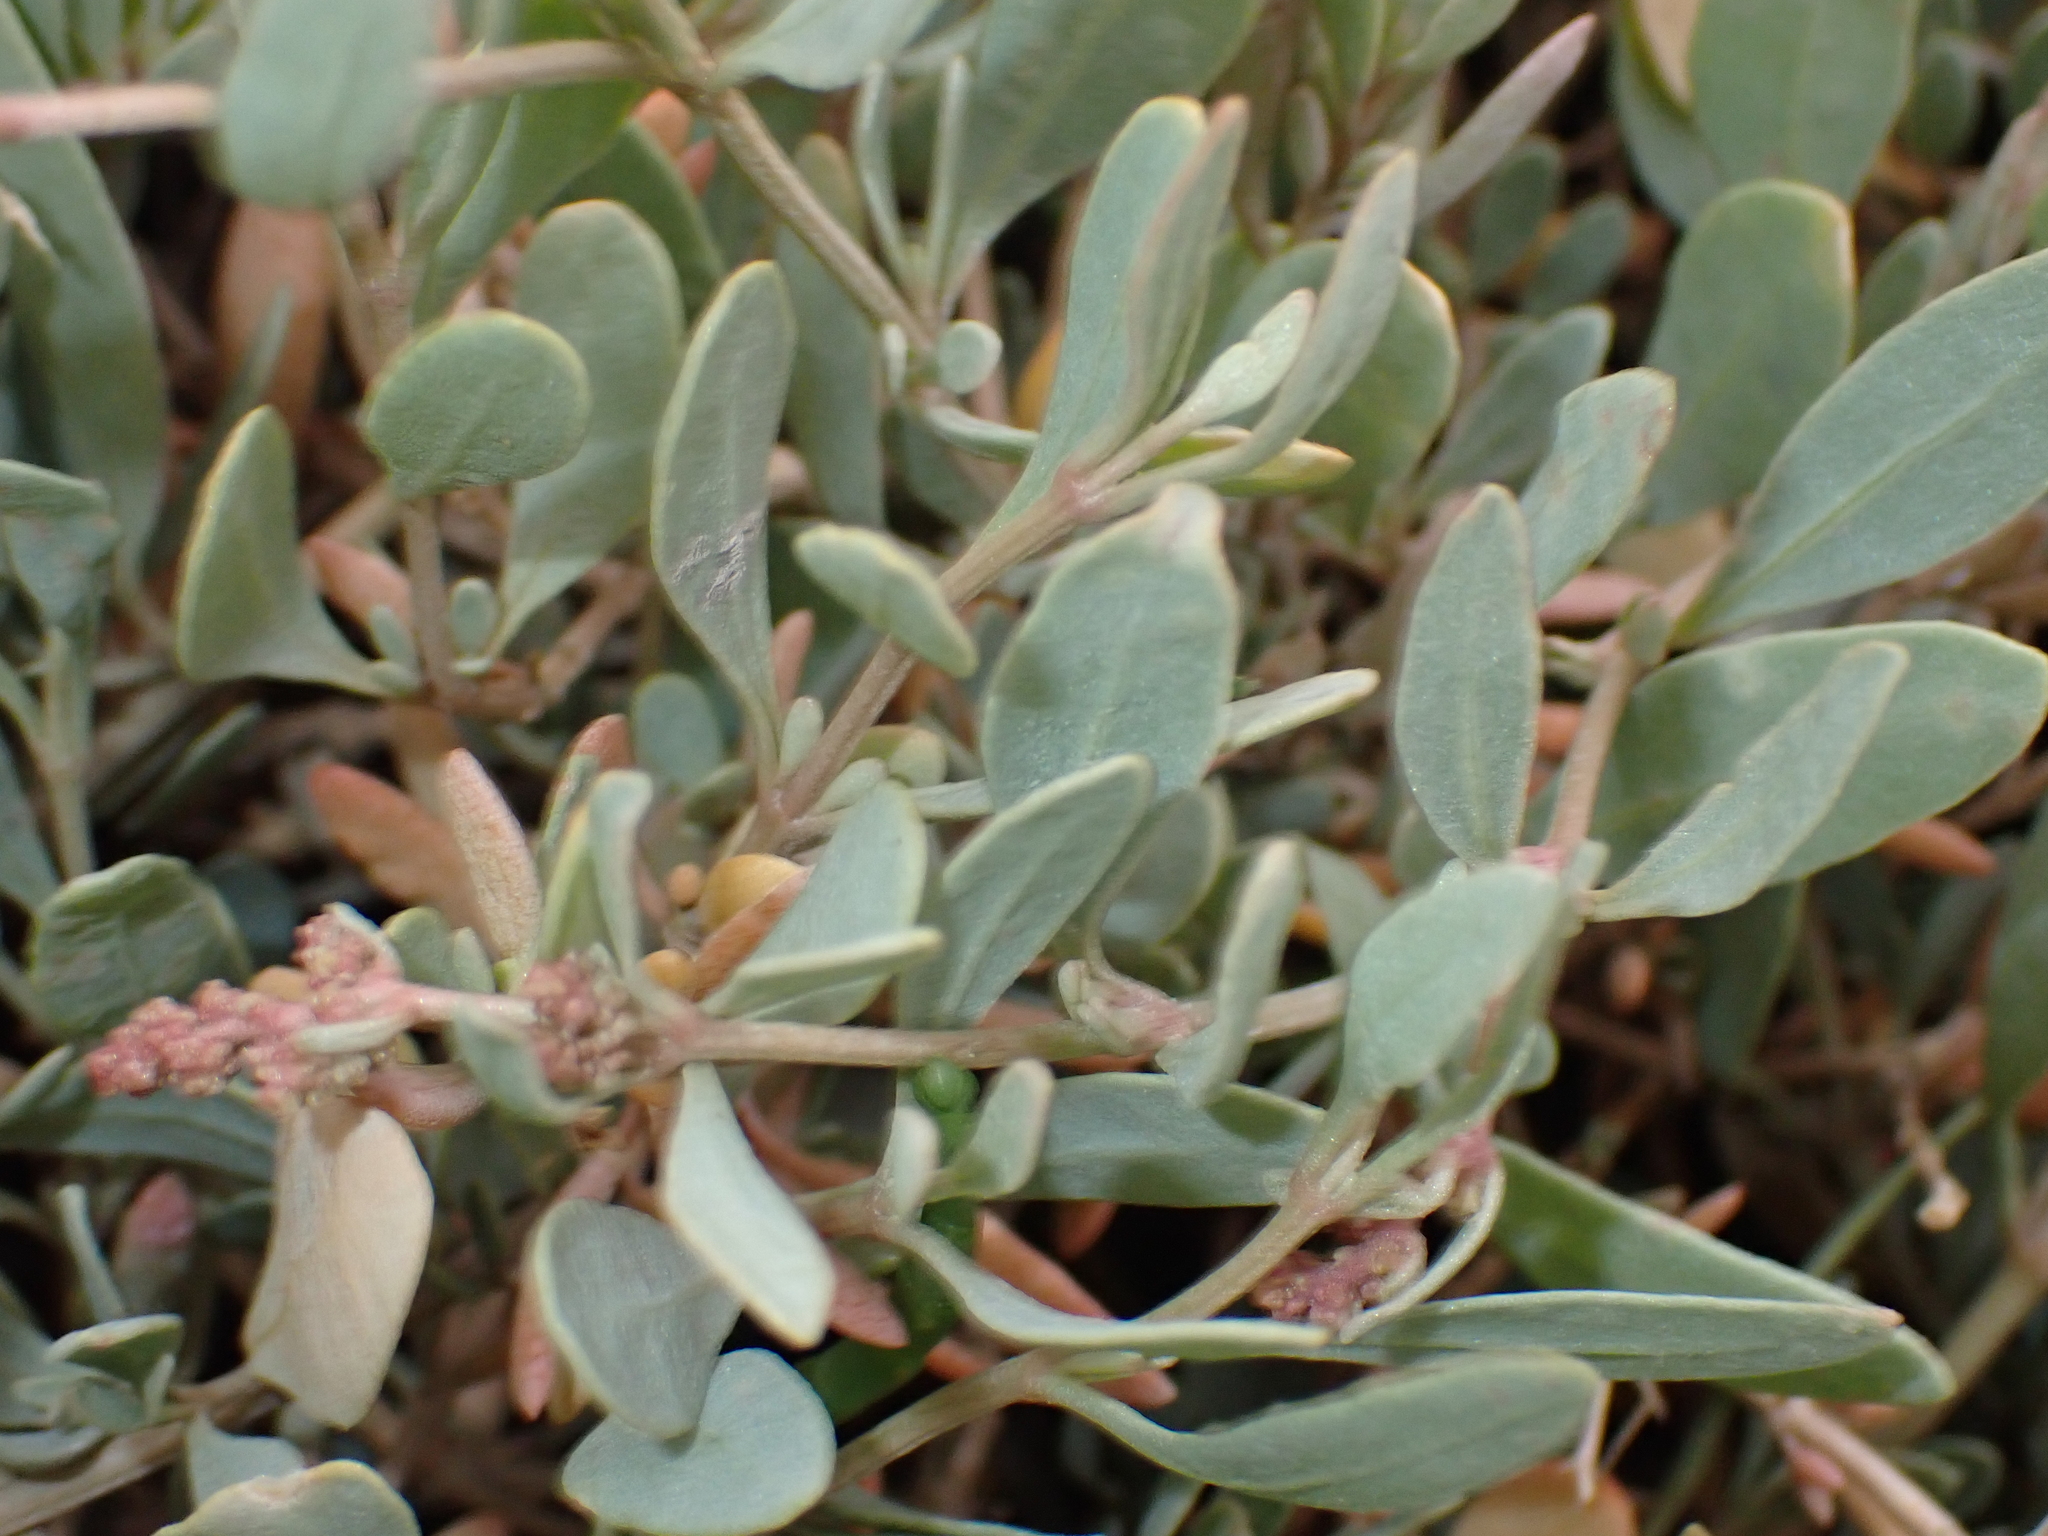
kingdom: Plantae
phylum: Tracheophyta
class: Magnoliopsida
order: Caryophyllales
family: Amaranthaceae
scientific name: Amaranthaceae
